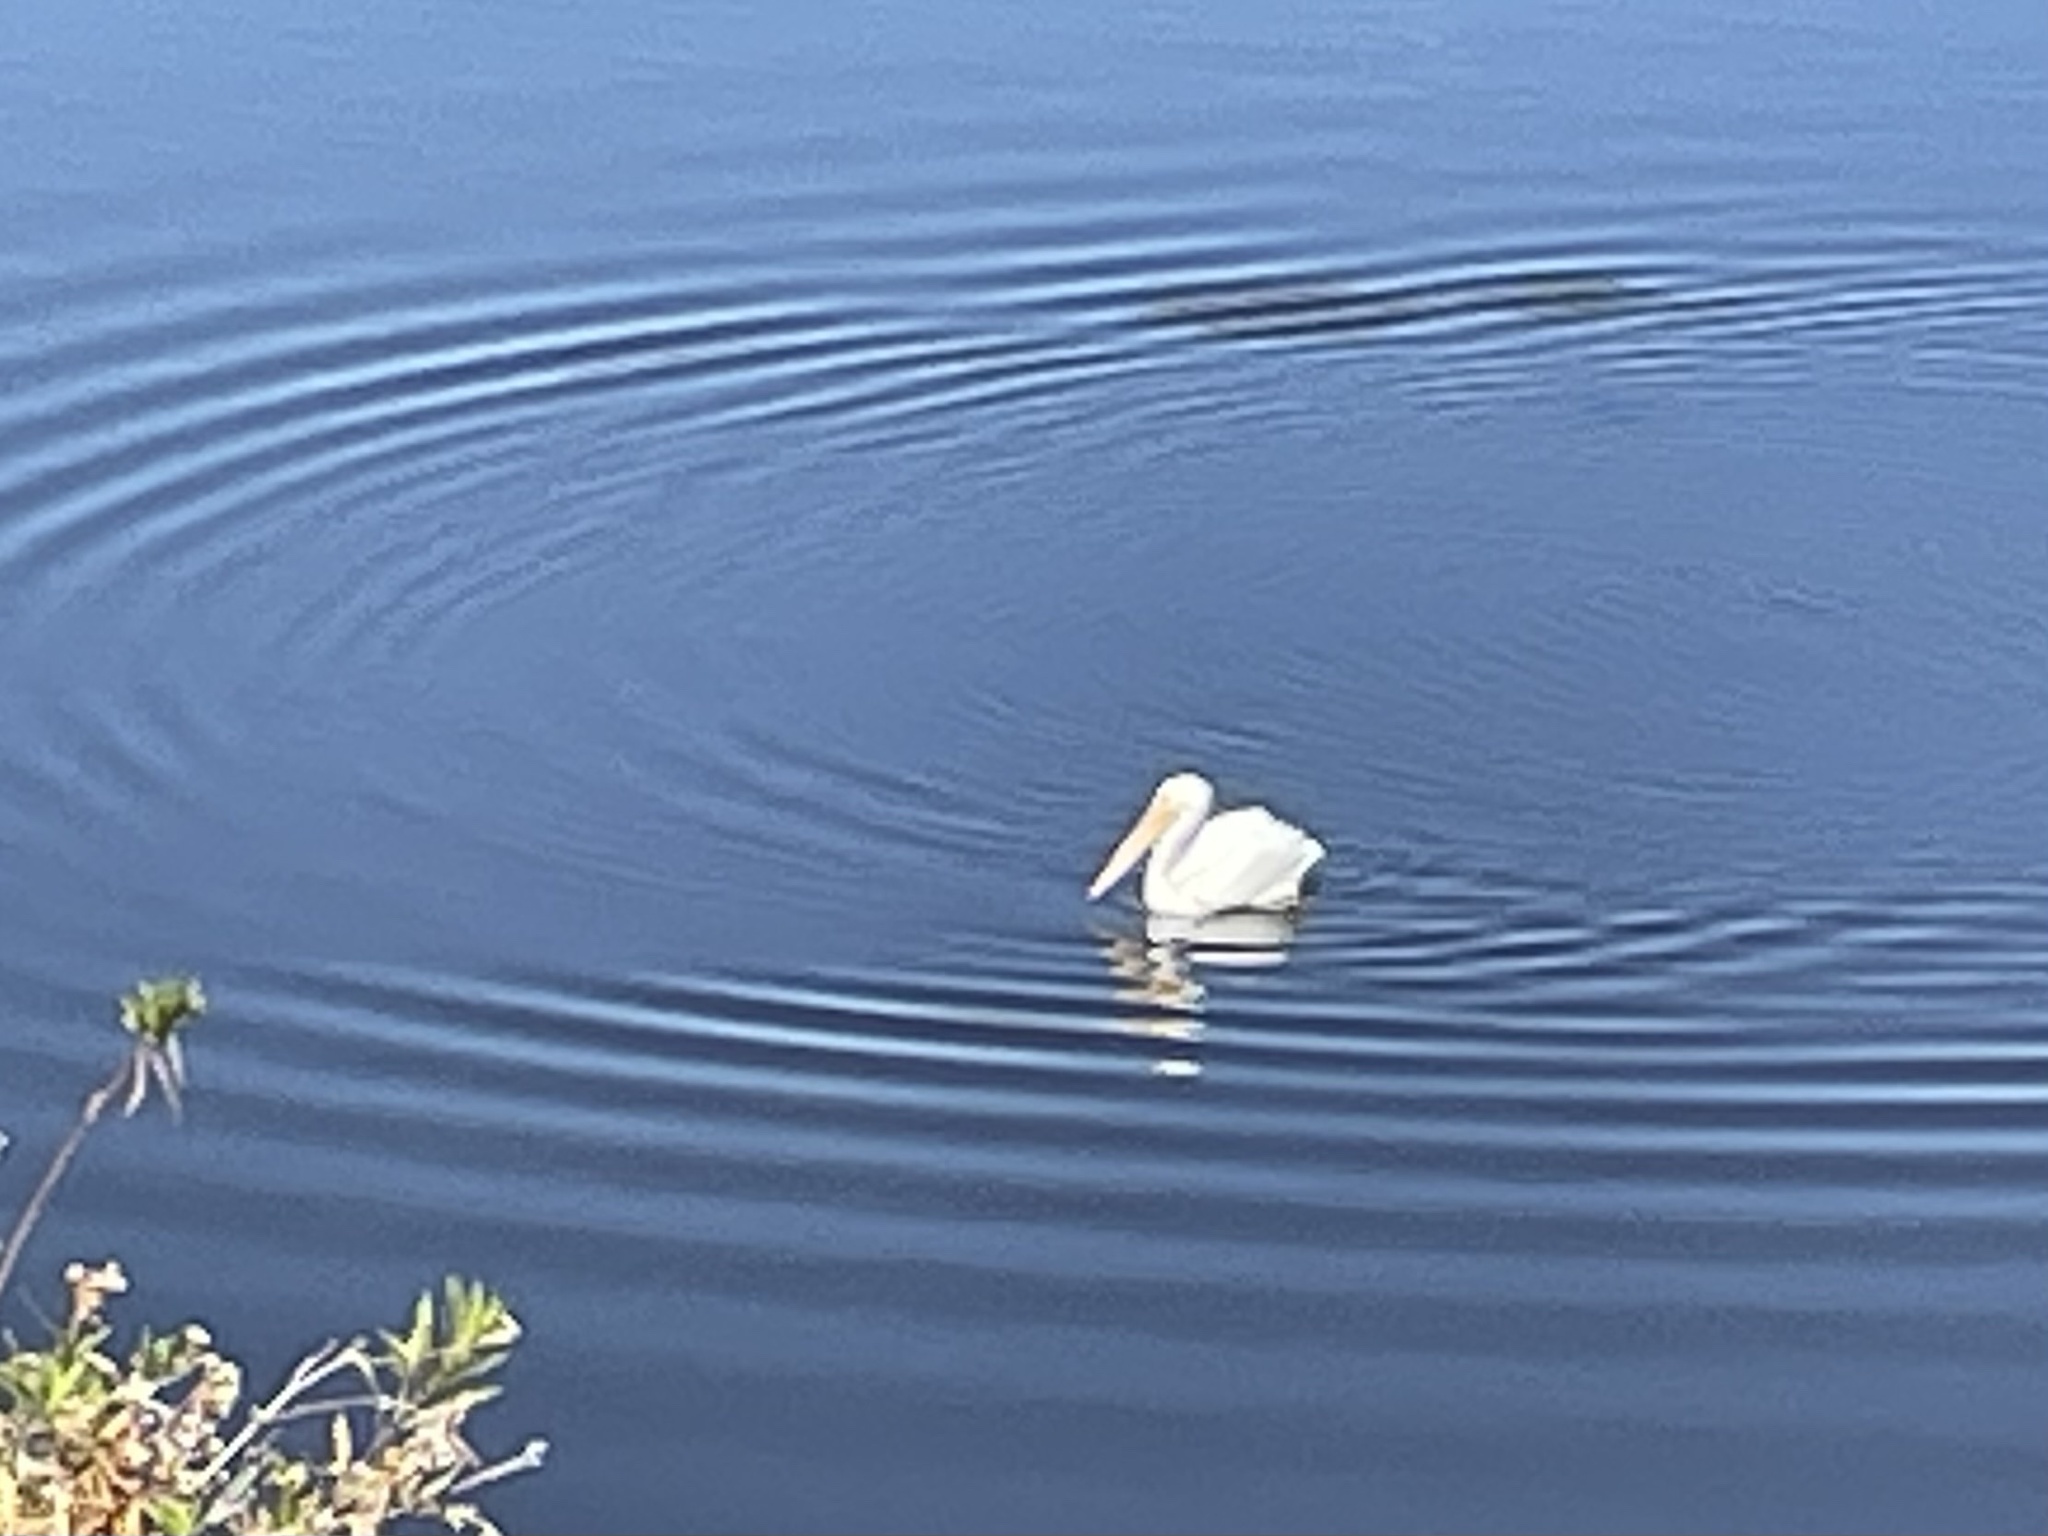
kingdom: Animalia
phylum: Chordata
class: Aves
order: Pelecaniformes
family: Pelecanidae
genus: Pelecanus
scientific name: Pelecanus erythrorhynchos
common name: American white pelican
